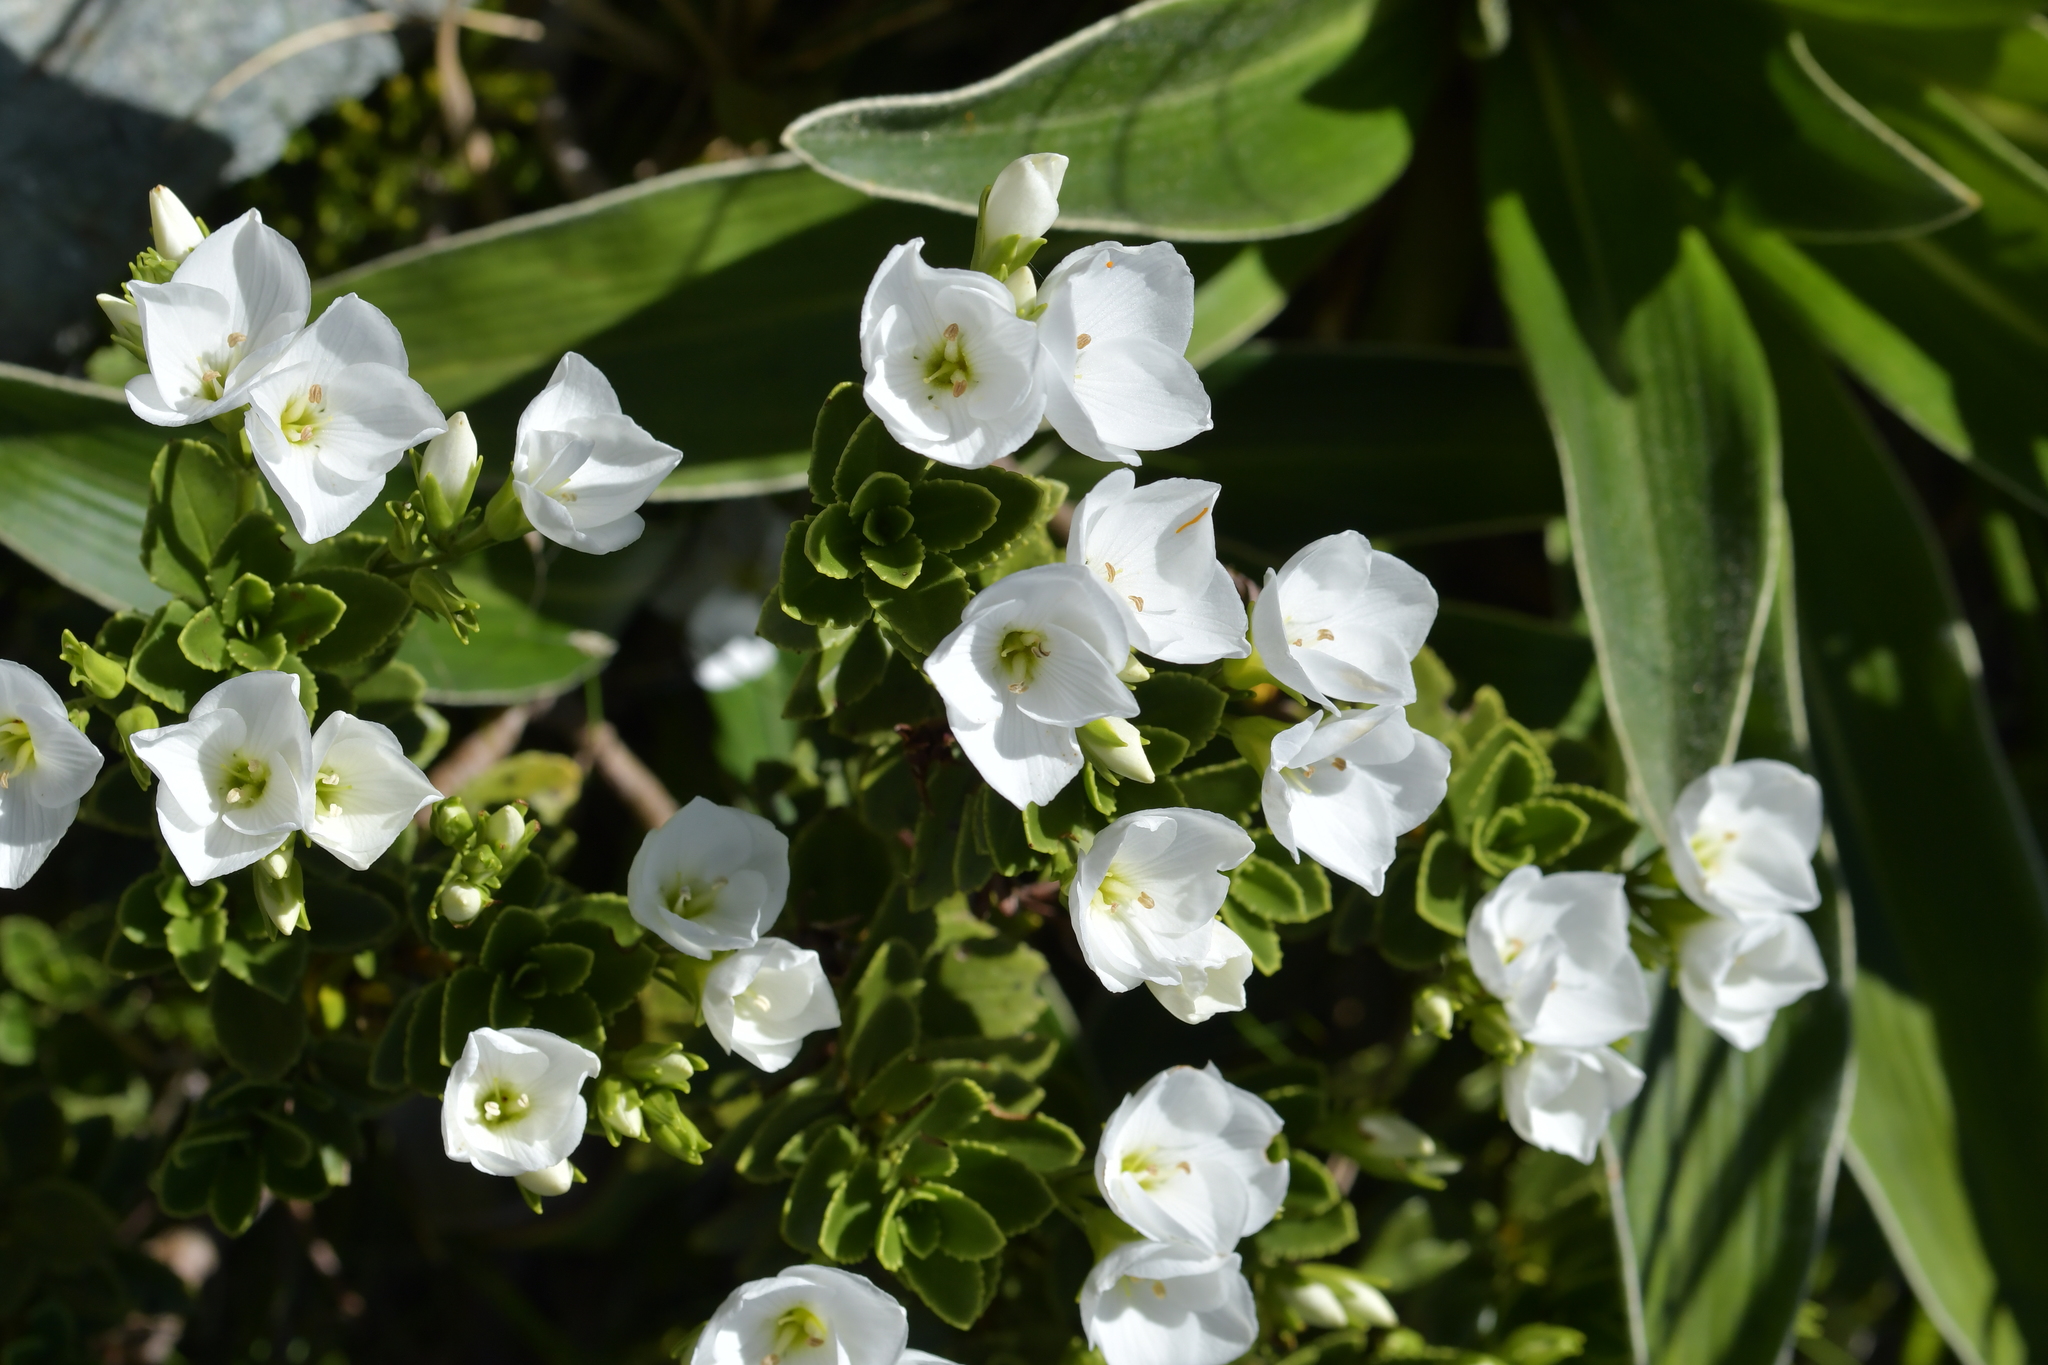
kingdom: Plantae
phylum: Tracheophyta
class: Magnoliopsida
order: Lamiales
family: Plantaginaceae
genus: Veronica
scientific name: Veronica macrantha
